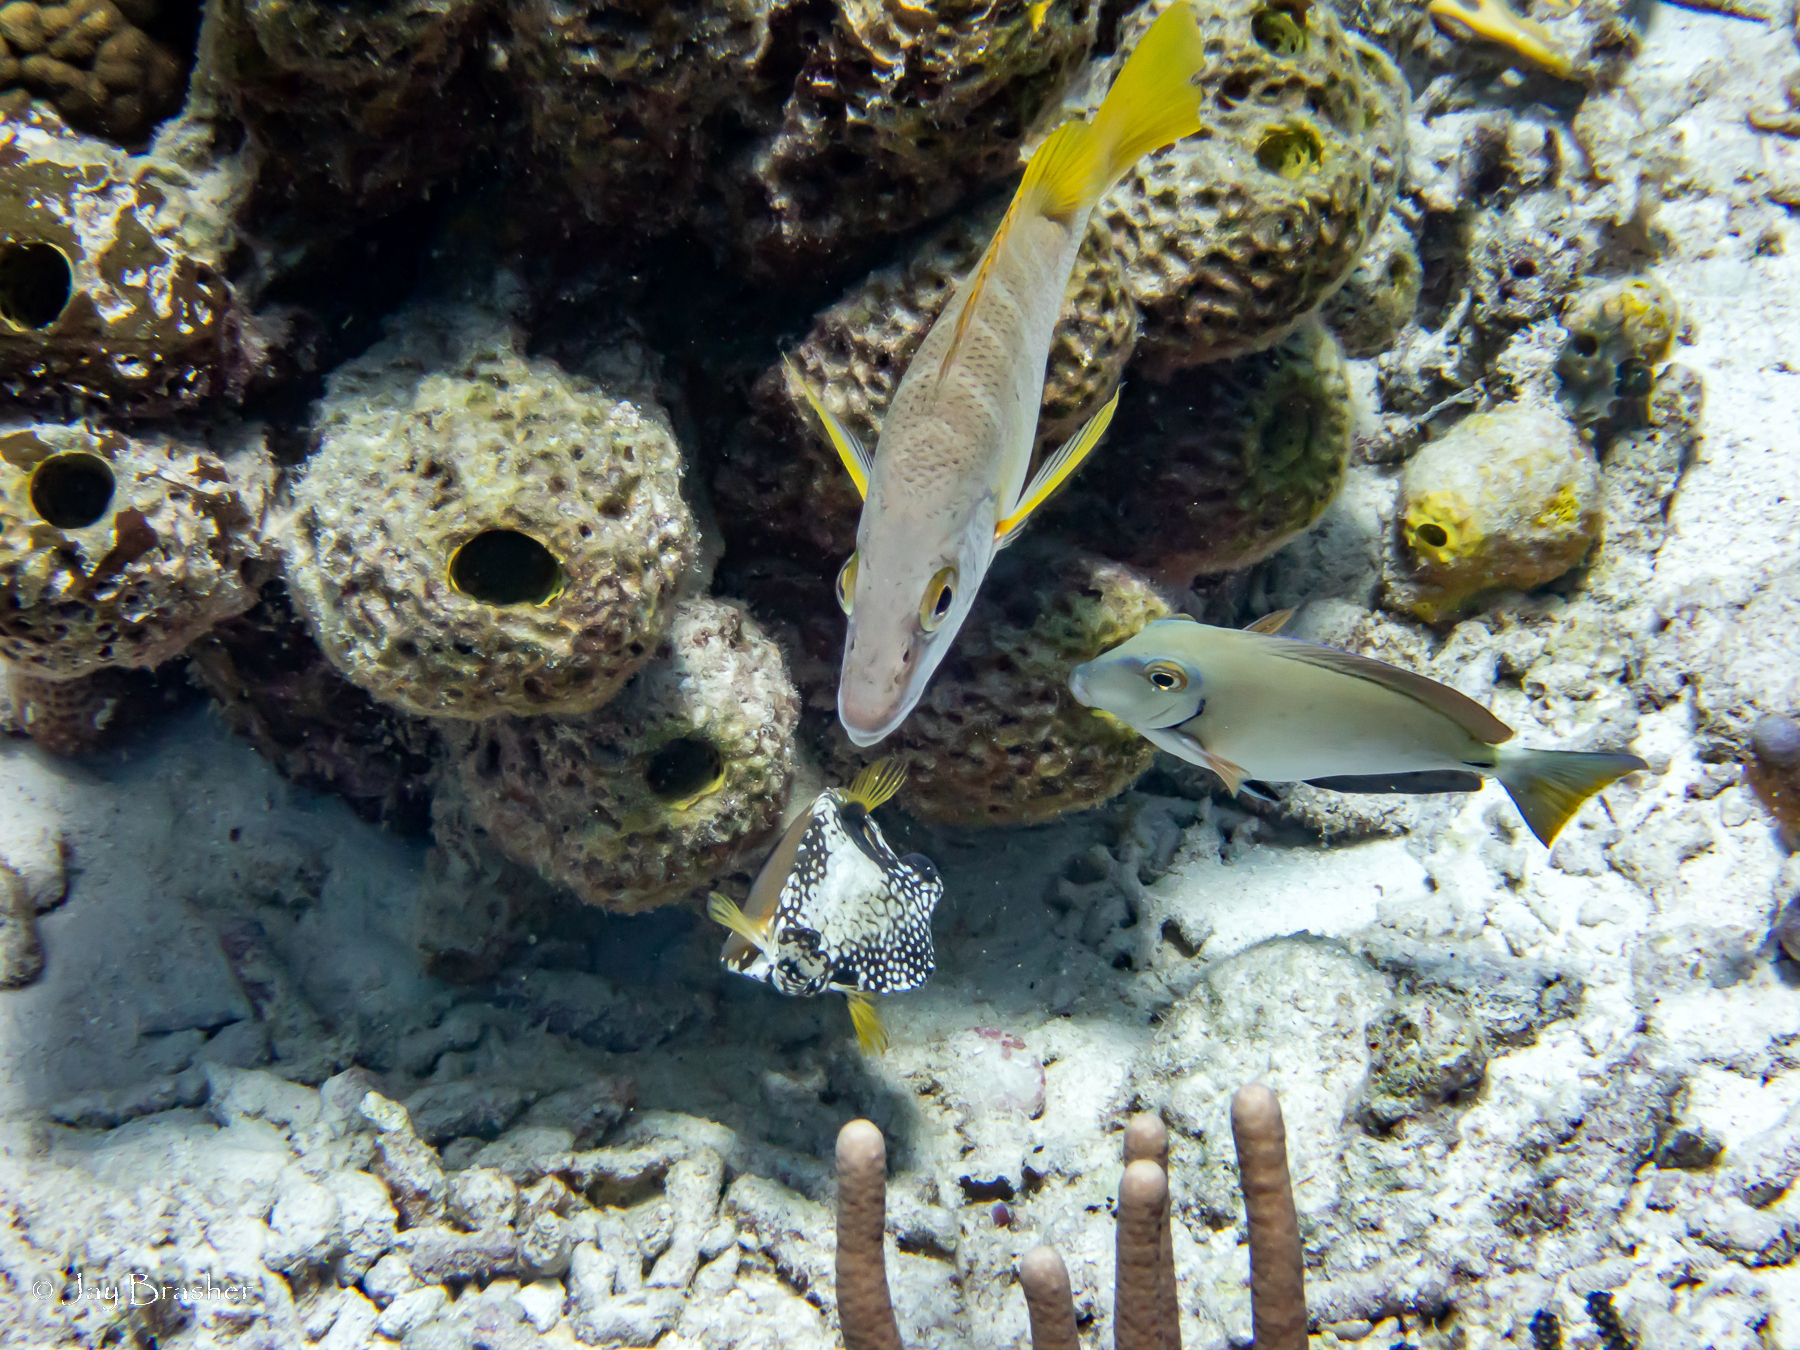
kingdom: Animalia
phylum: Chordata
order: Perciformes
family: Acanthuridae
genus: Acanthurus
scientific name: Acanthurus bahianus
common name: Ocean surgeon
